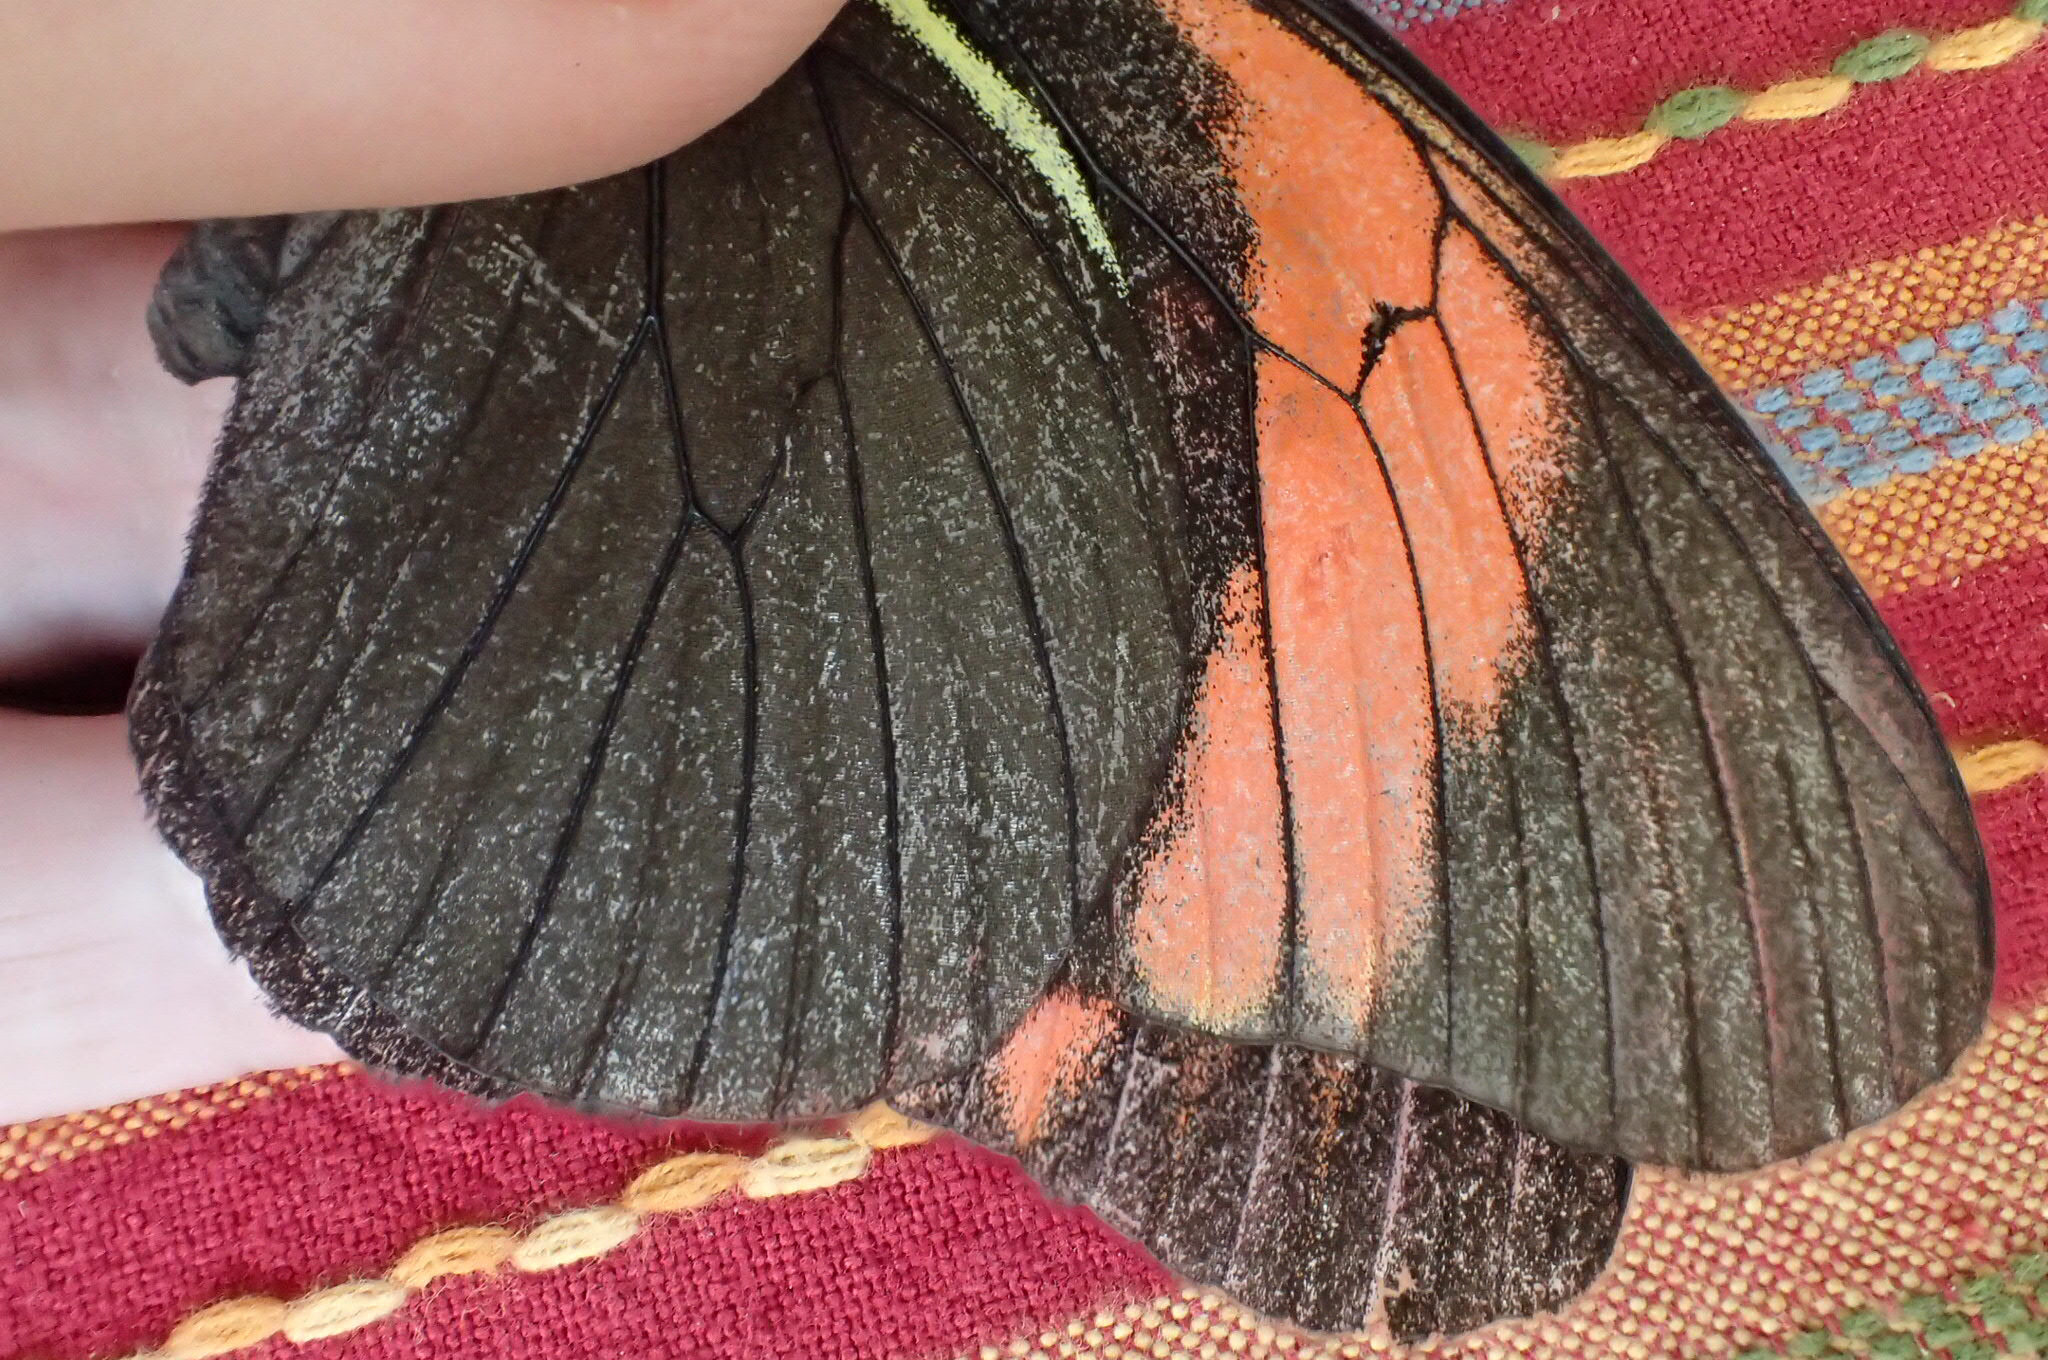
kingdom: Animalia
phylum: Arthropoda
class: Insecta
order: Lepidoptera
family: Pieridae
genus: Pereute
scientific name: Pereute charops
